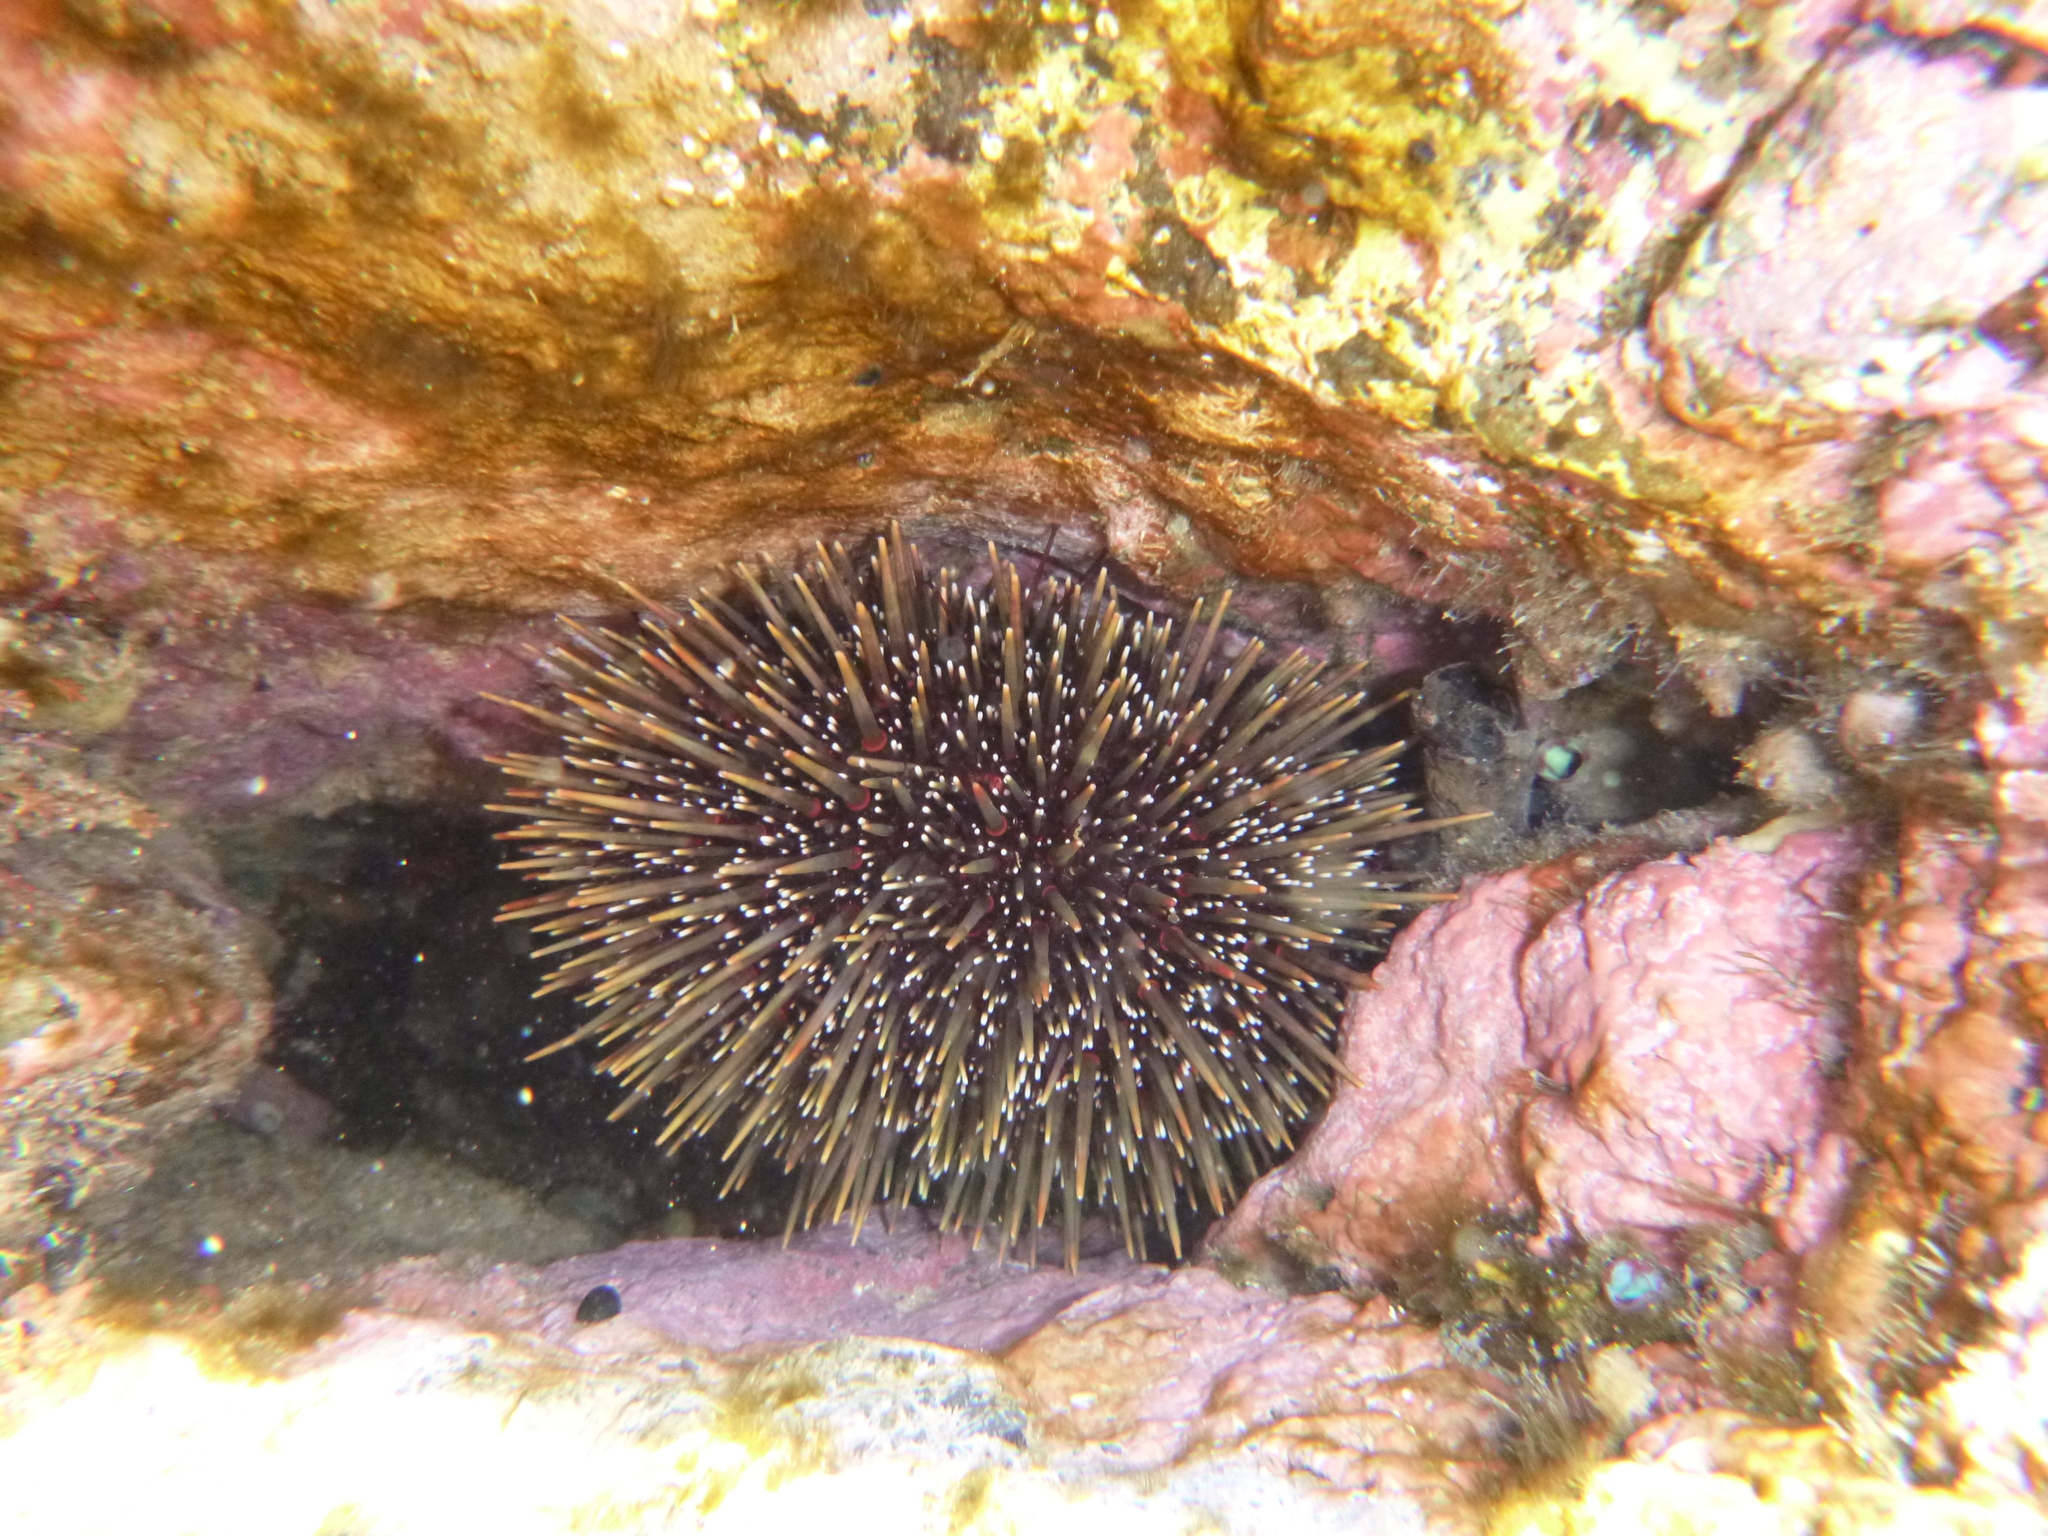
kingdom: Animalia
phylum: Echinodermata
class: Echinoidea
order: Camarodonta
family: Echinometridae
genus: Evechinus
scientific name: Evechinus chloroticus
